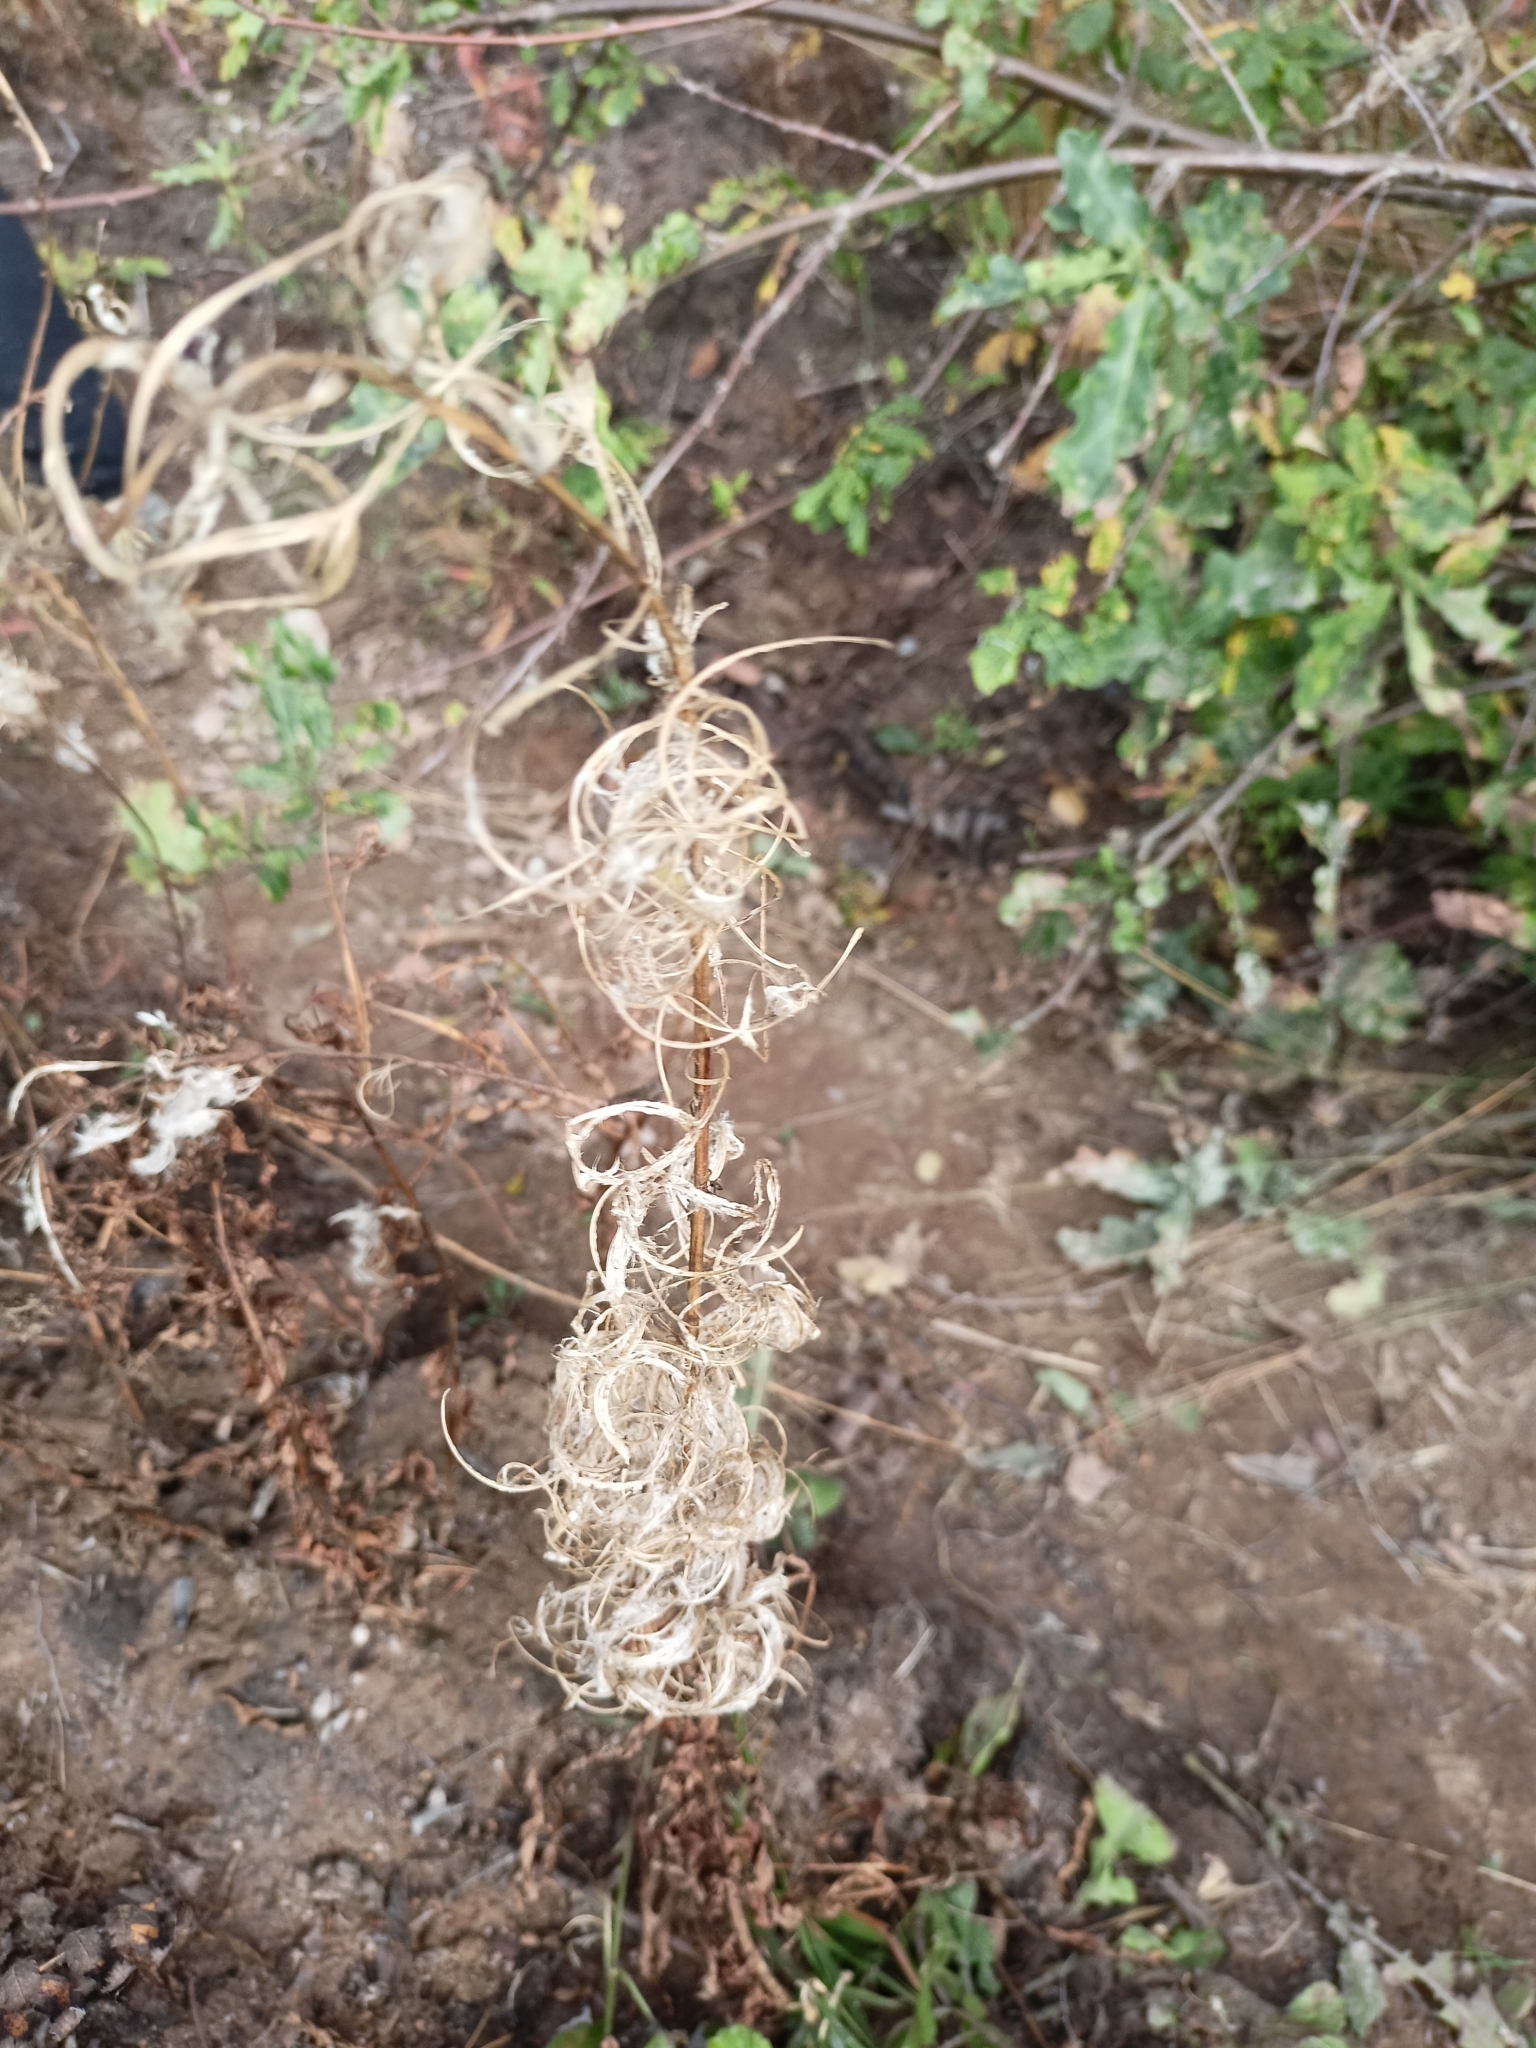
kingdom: Plantae
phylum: Tracheophyta
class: Magnoliopsida
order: Myrtales
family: Onagraceae
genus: Chamaenerion
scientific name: Chamaenerion angustifolium
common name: Fireweed
